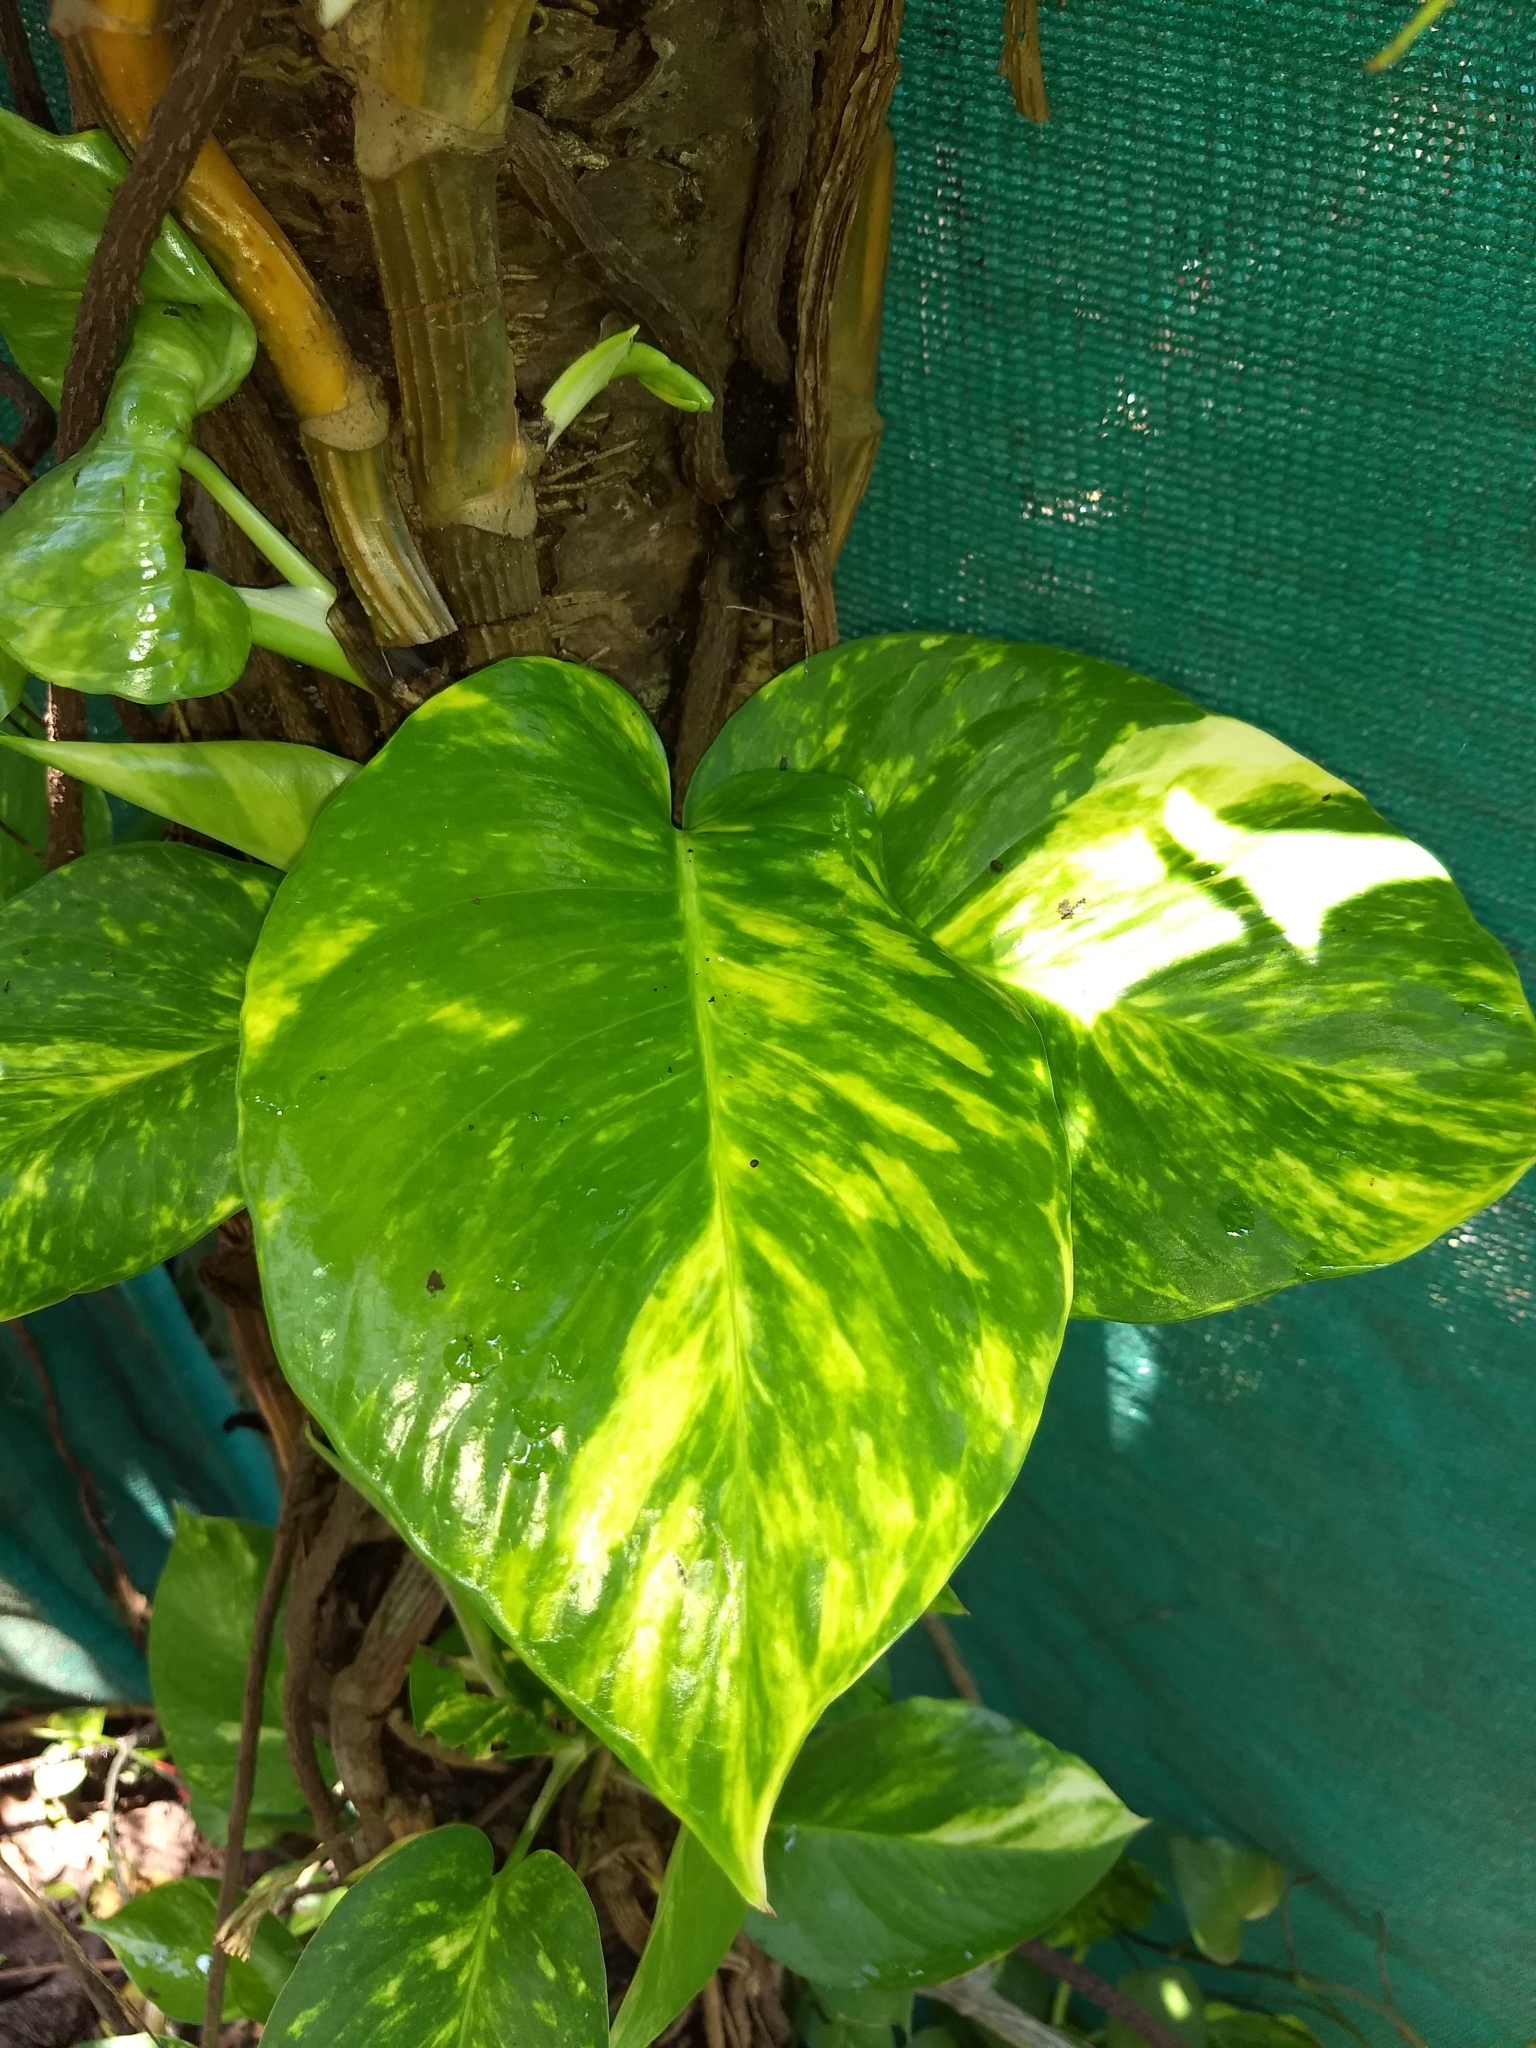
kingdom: Plantae
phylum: Tracheophyta
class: Liliopsida
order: Alismatales
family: Araceae
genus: Epipremnum
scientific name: Epipremnum aureum
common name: Golden hunter's-robe
